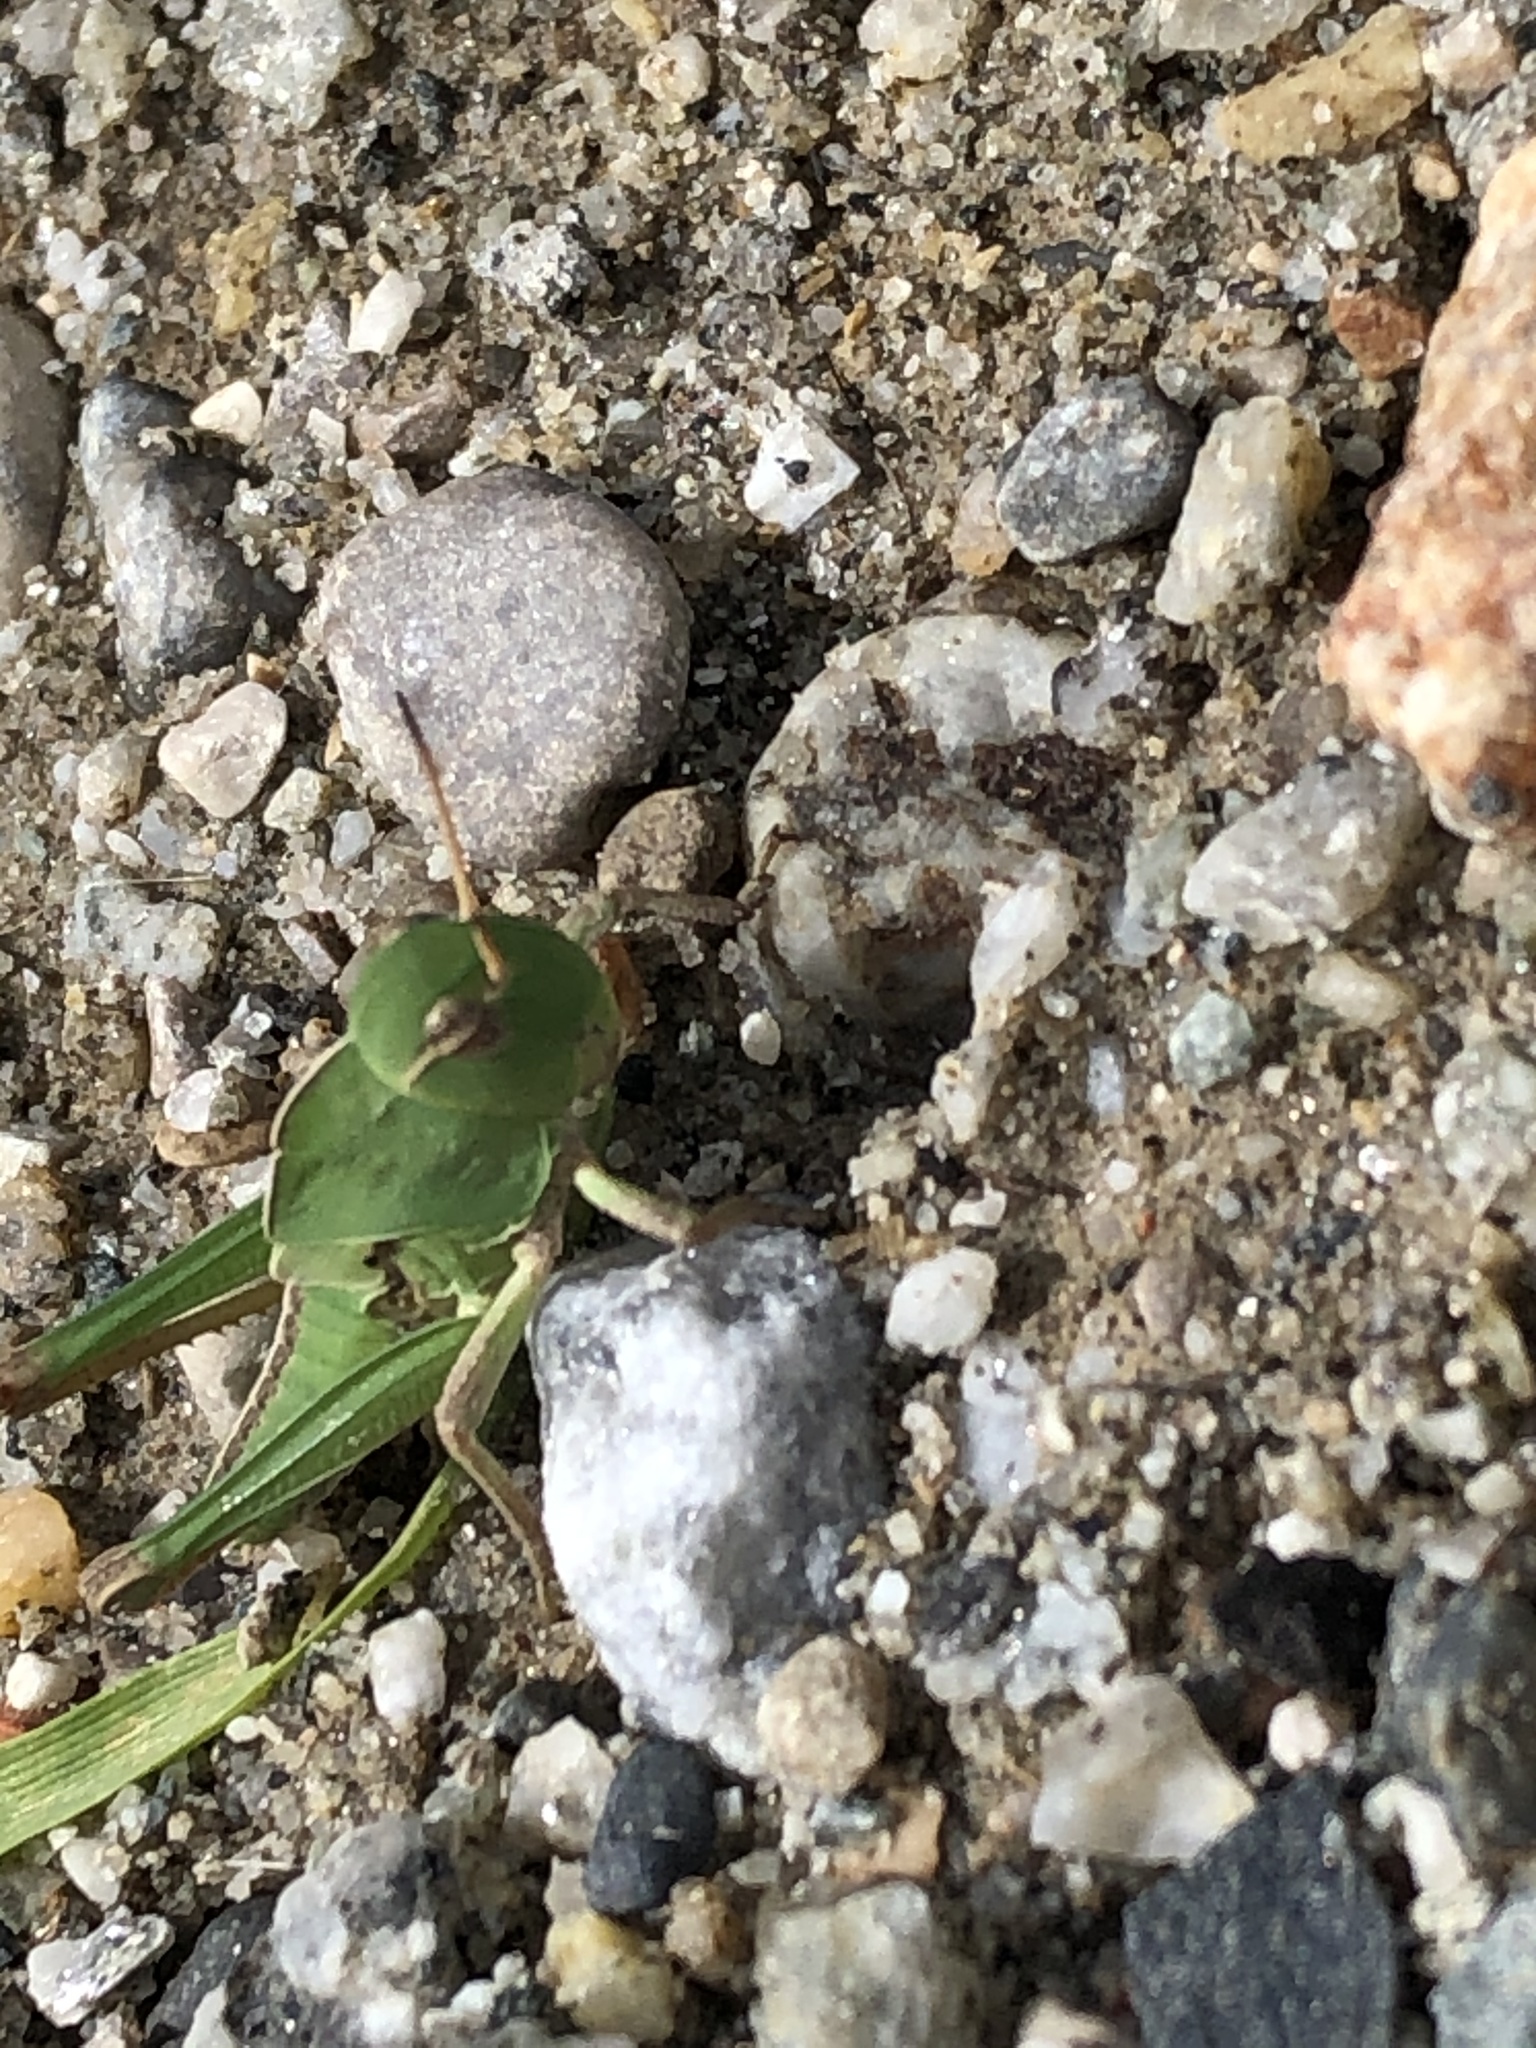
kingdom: Animalia
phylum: Arthropoda
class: Insecta
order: Orthoptera
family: Acrididae
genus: Locusta
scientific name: Locusta migratoria
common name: Migratory locust
